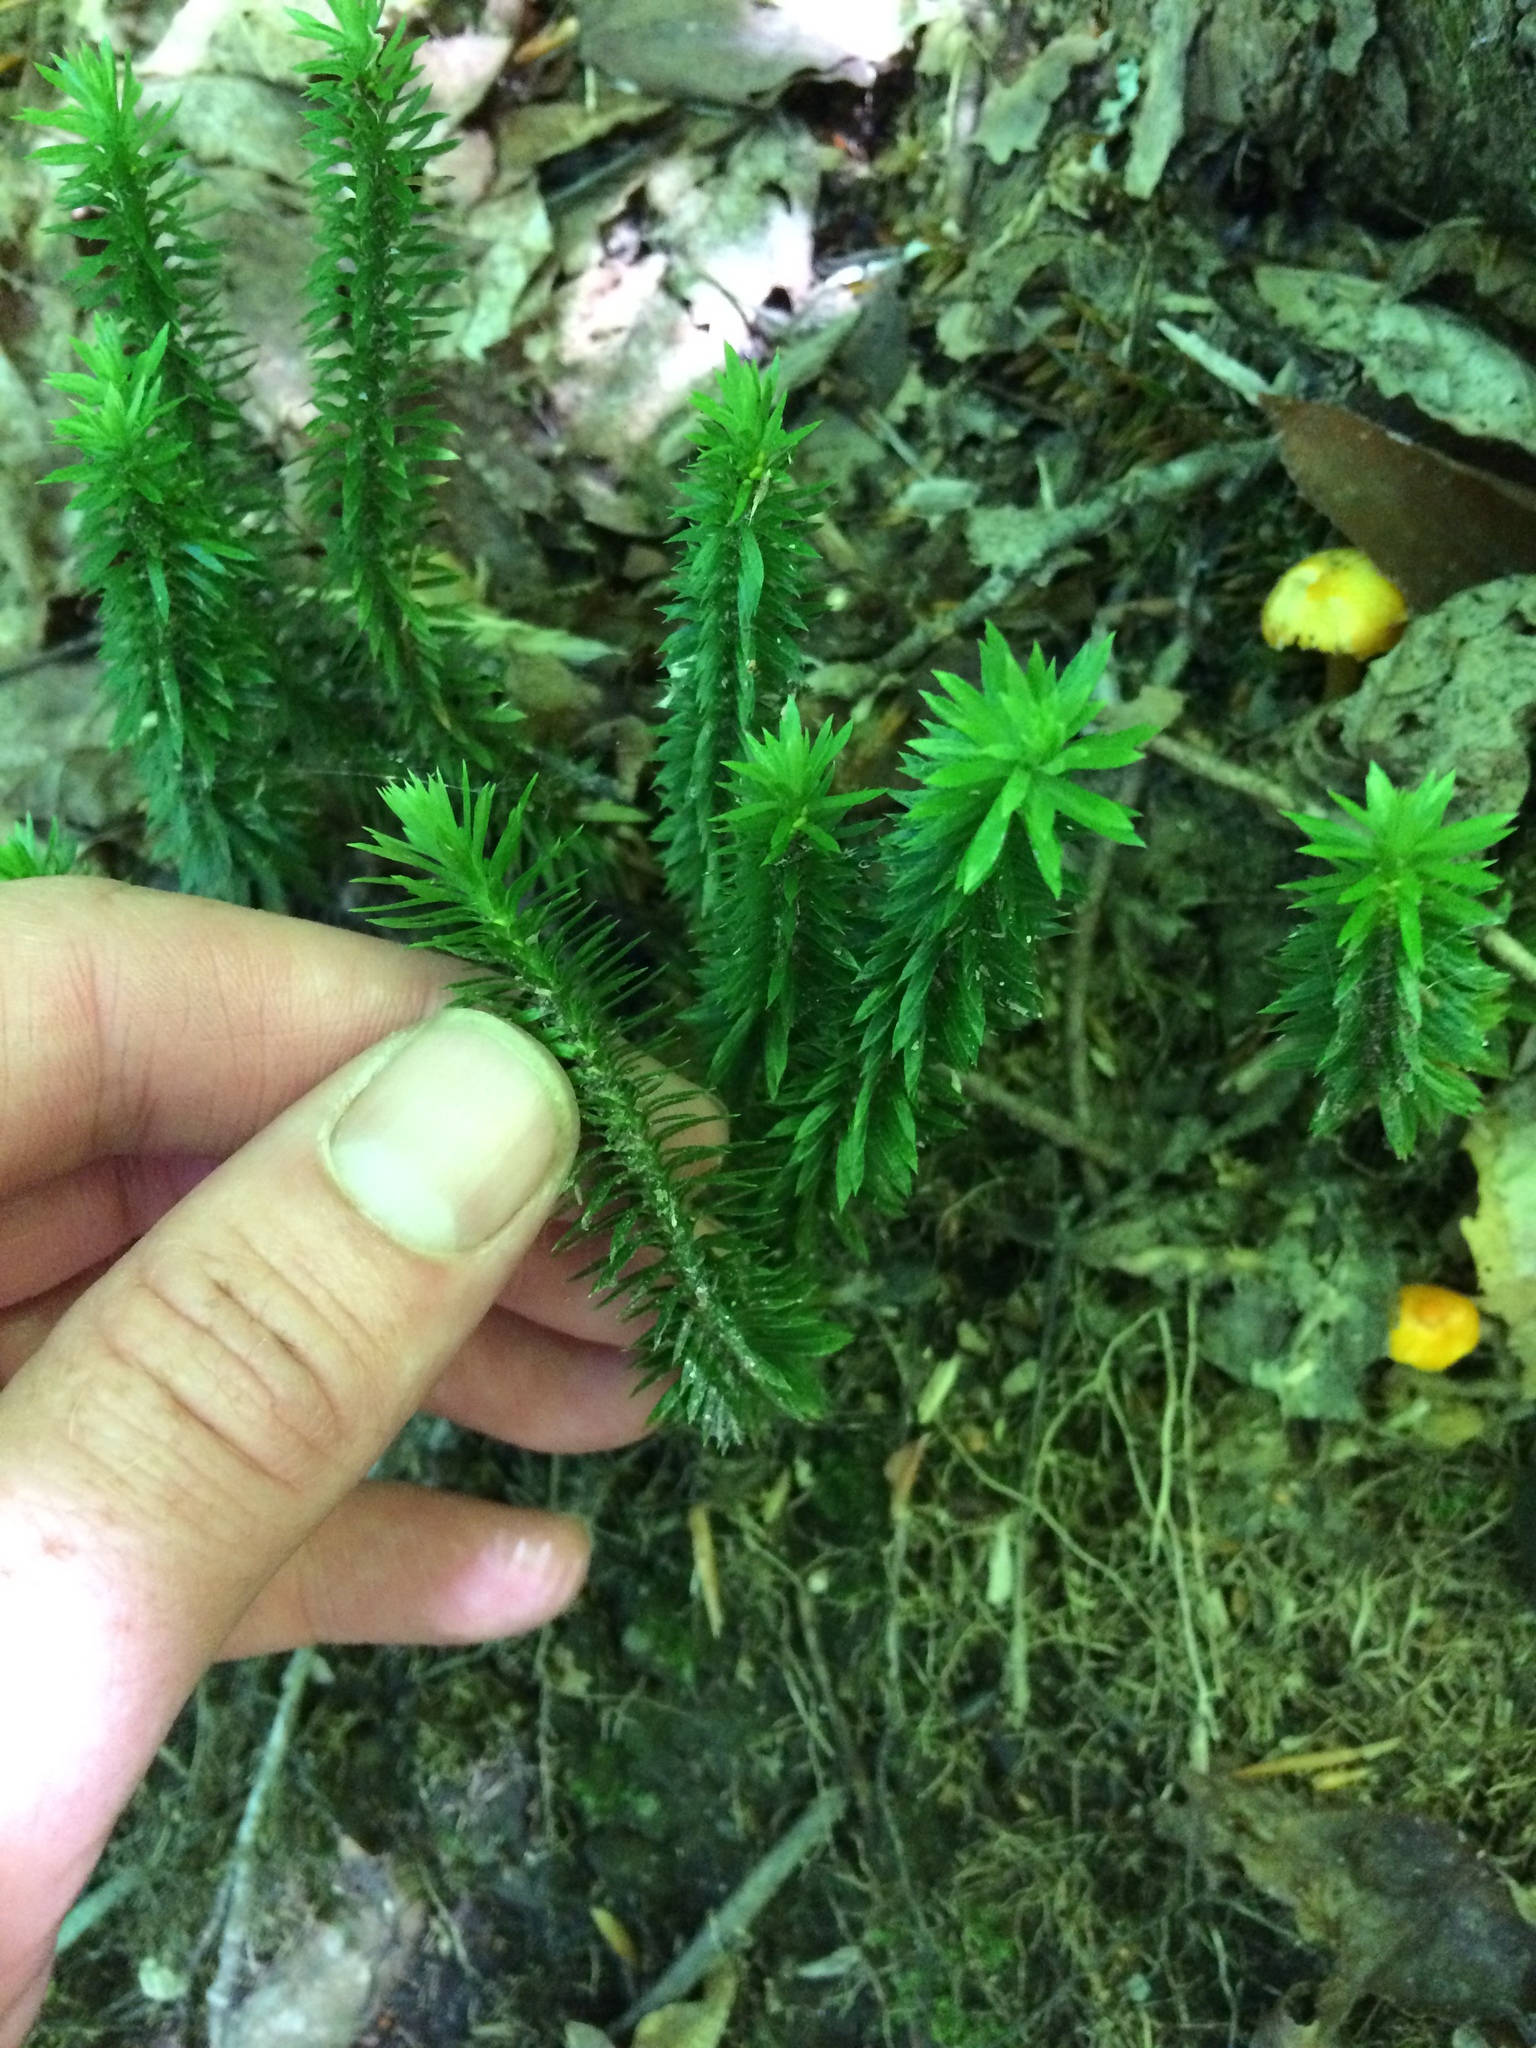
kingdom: Plantae
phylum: Tracheophyta
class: Lycopodiopsida
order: Lycopodiales
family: Lycopodiaceae
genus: Huperzia
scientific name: Huperzia lucidula
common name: Shining clubmoss
